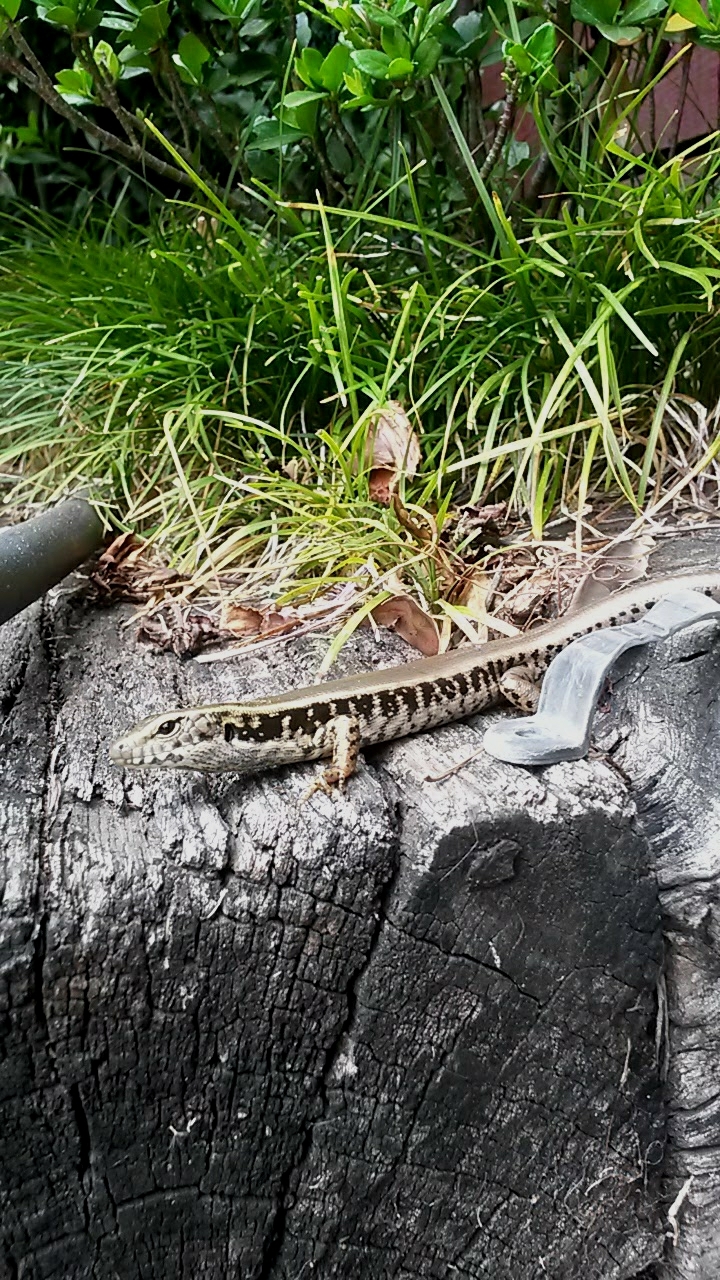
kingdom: Animalia
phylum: Chordata
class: Squamata
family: Scincidae
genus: Eulamprus
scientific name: Eulamprus quoyii
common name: Eastern water skink
